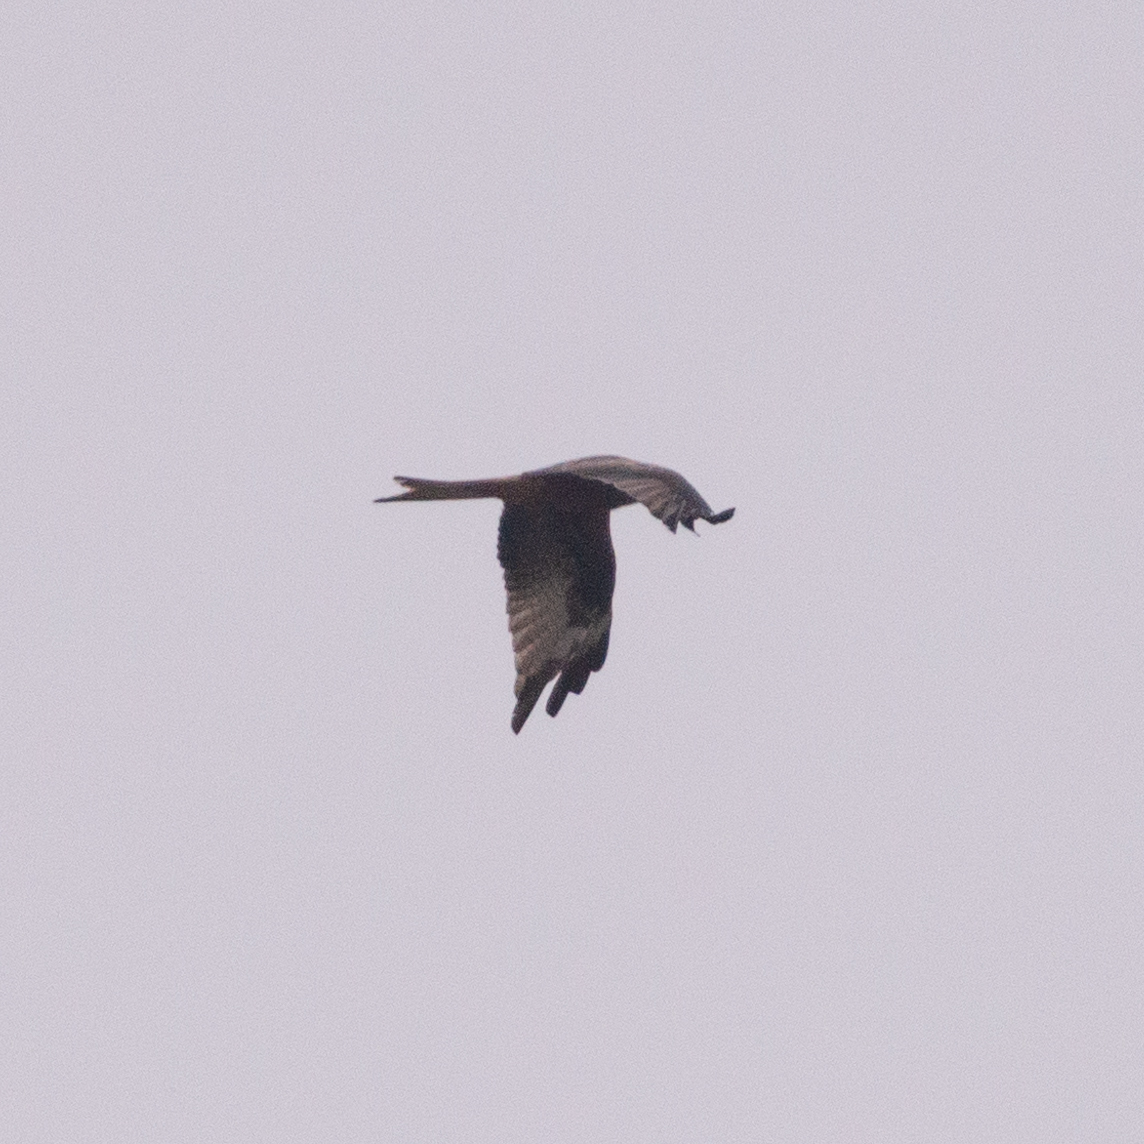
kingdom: Animalia
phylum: Chordata
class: Aves
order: Accipitriformes
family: Accipitridae
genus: Milvus
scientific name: Milvus milvus
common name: Red kite
